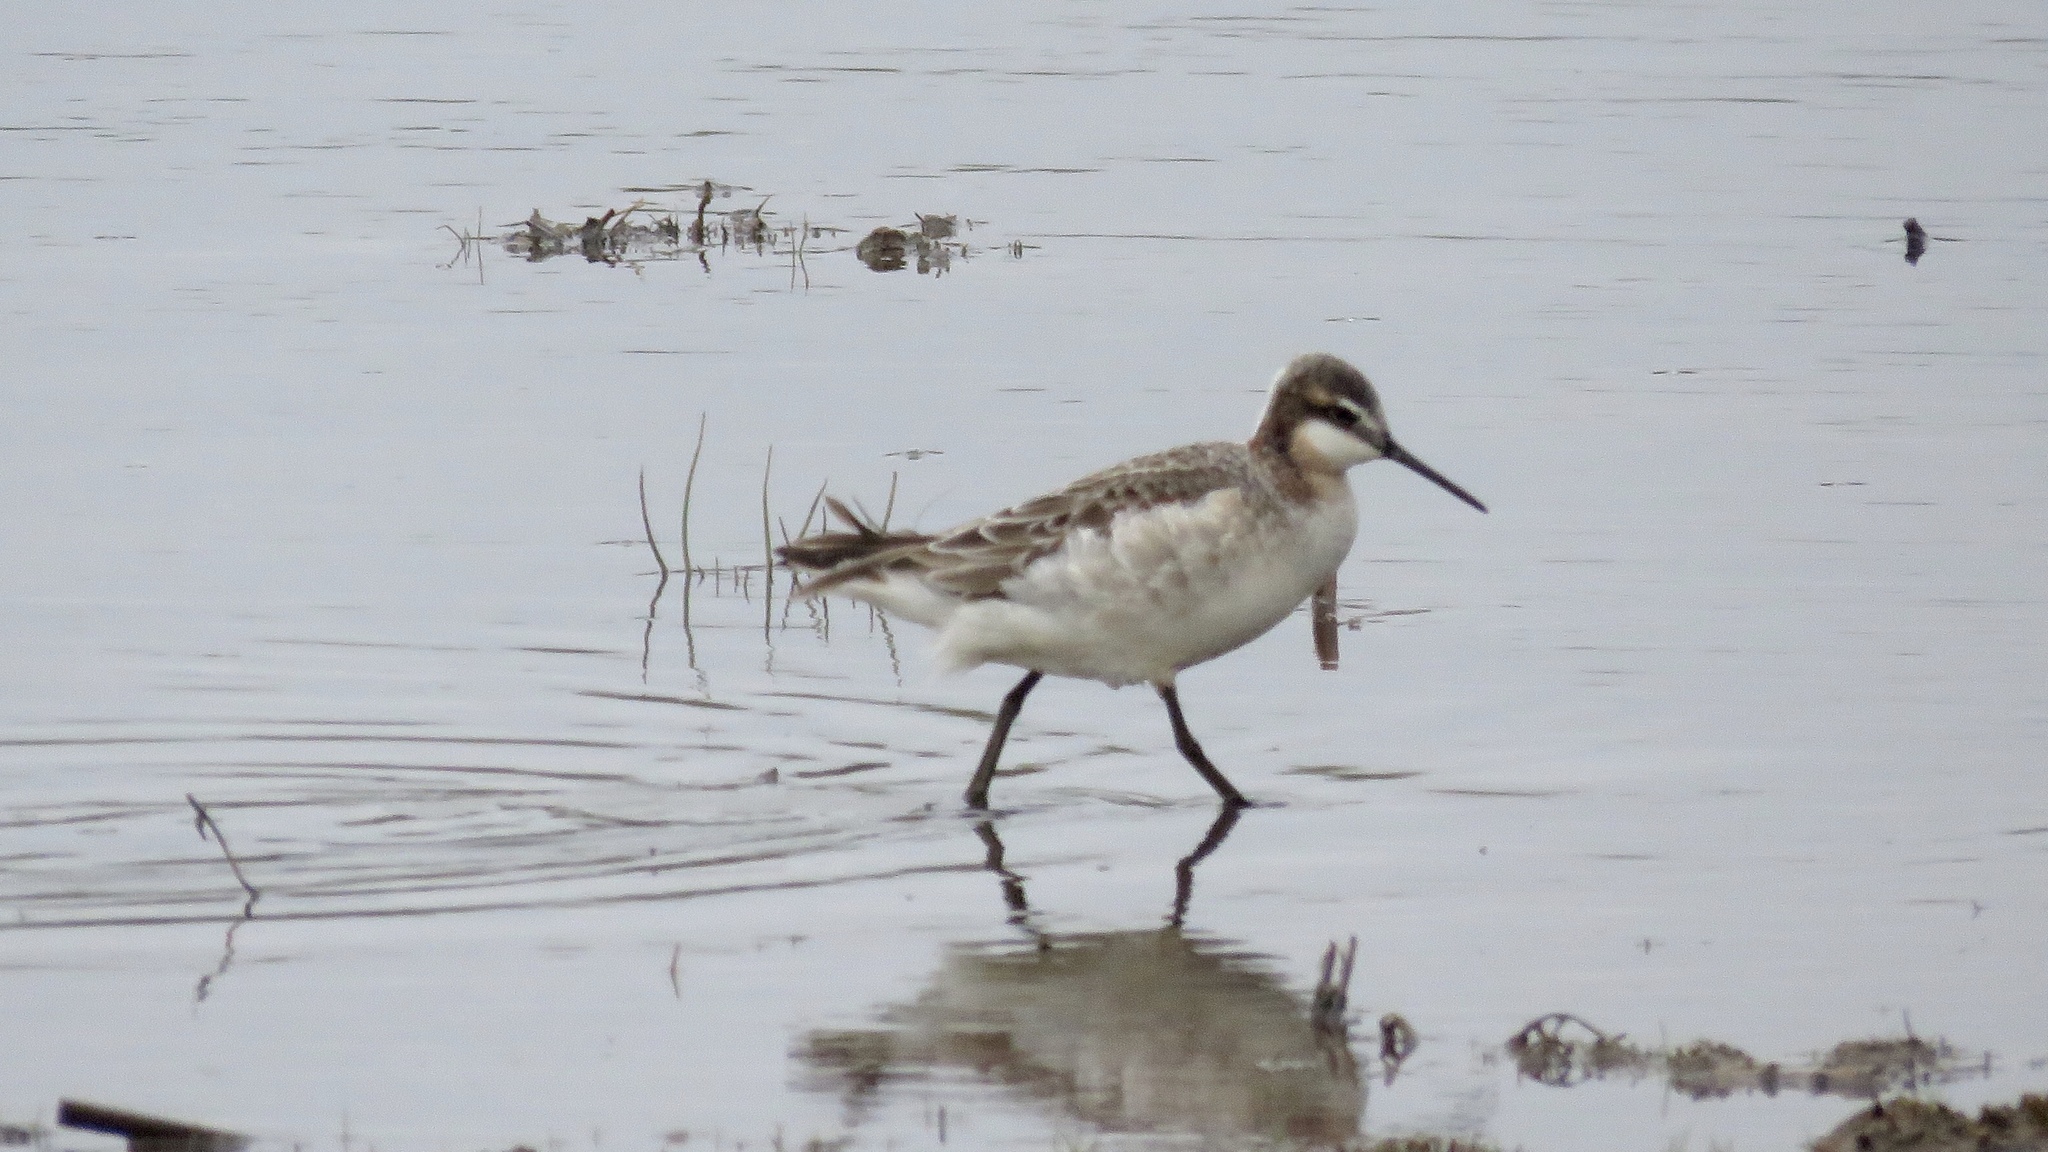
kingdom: Animalia
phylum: Chordata
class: Aves
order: Charadriiformes
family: Scolopacidae
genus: Phalaropus
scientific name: Phalaropus tricolor
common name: Wilson's phalarope
